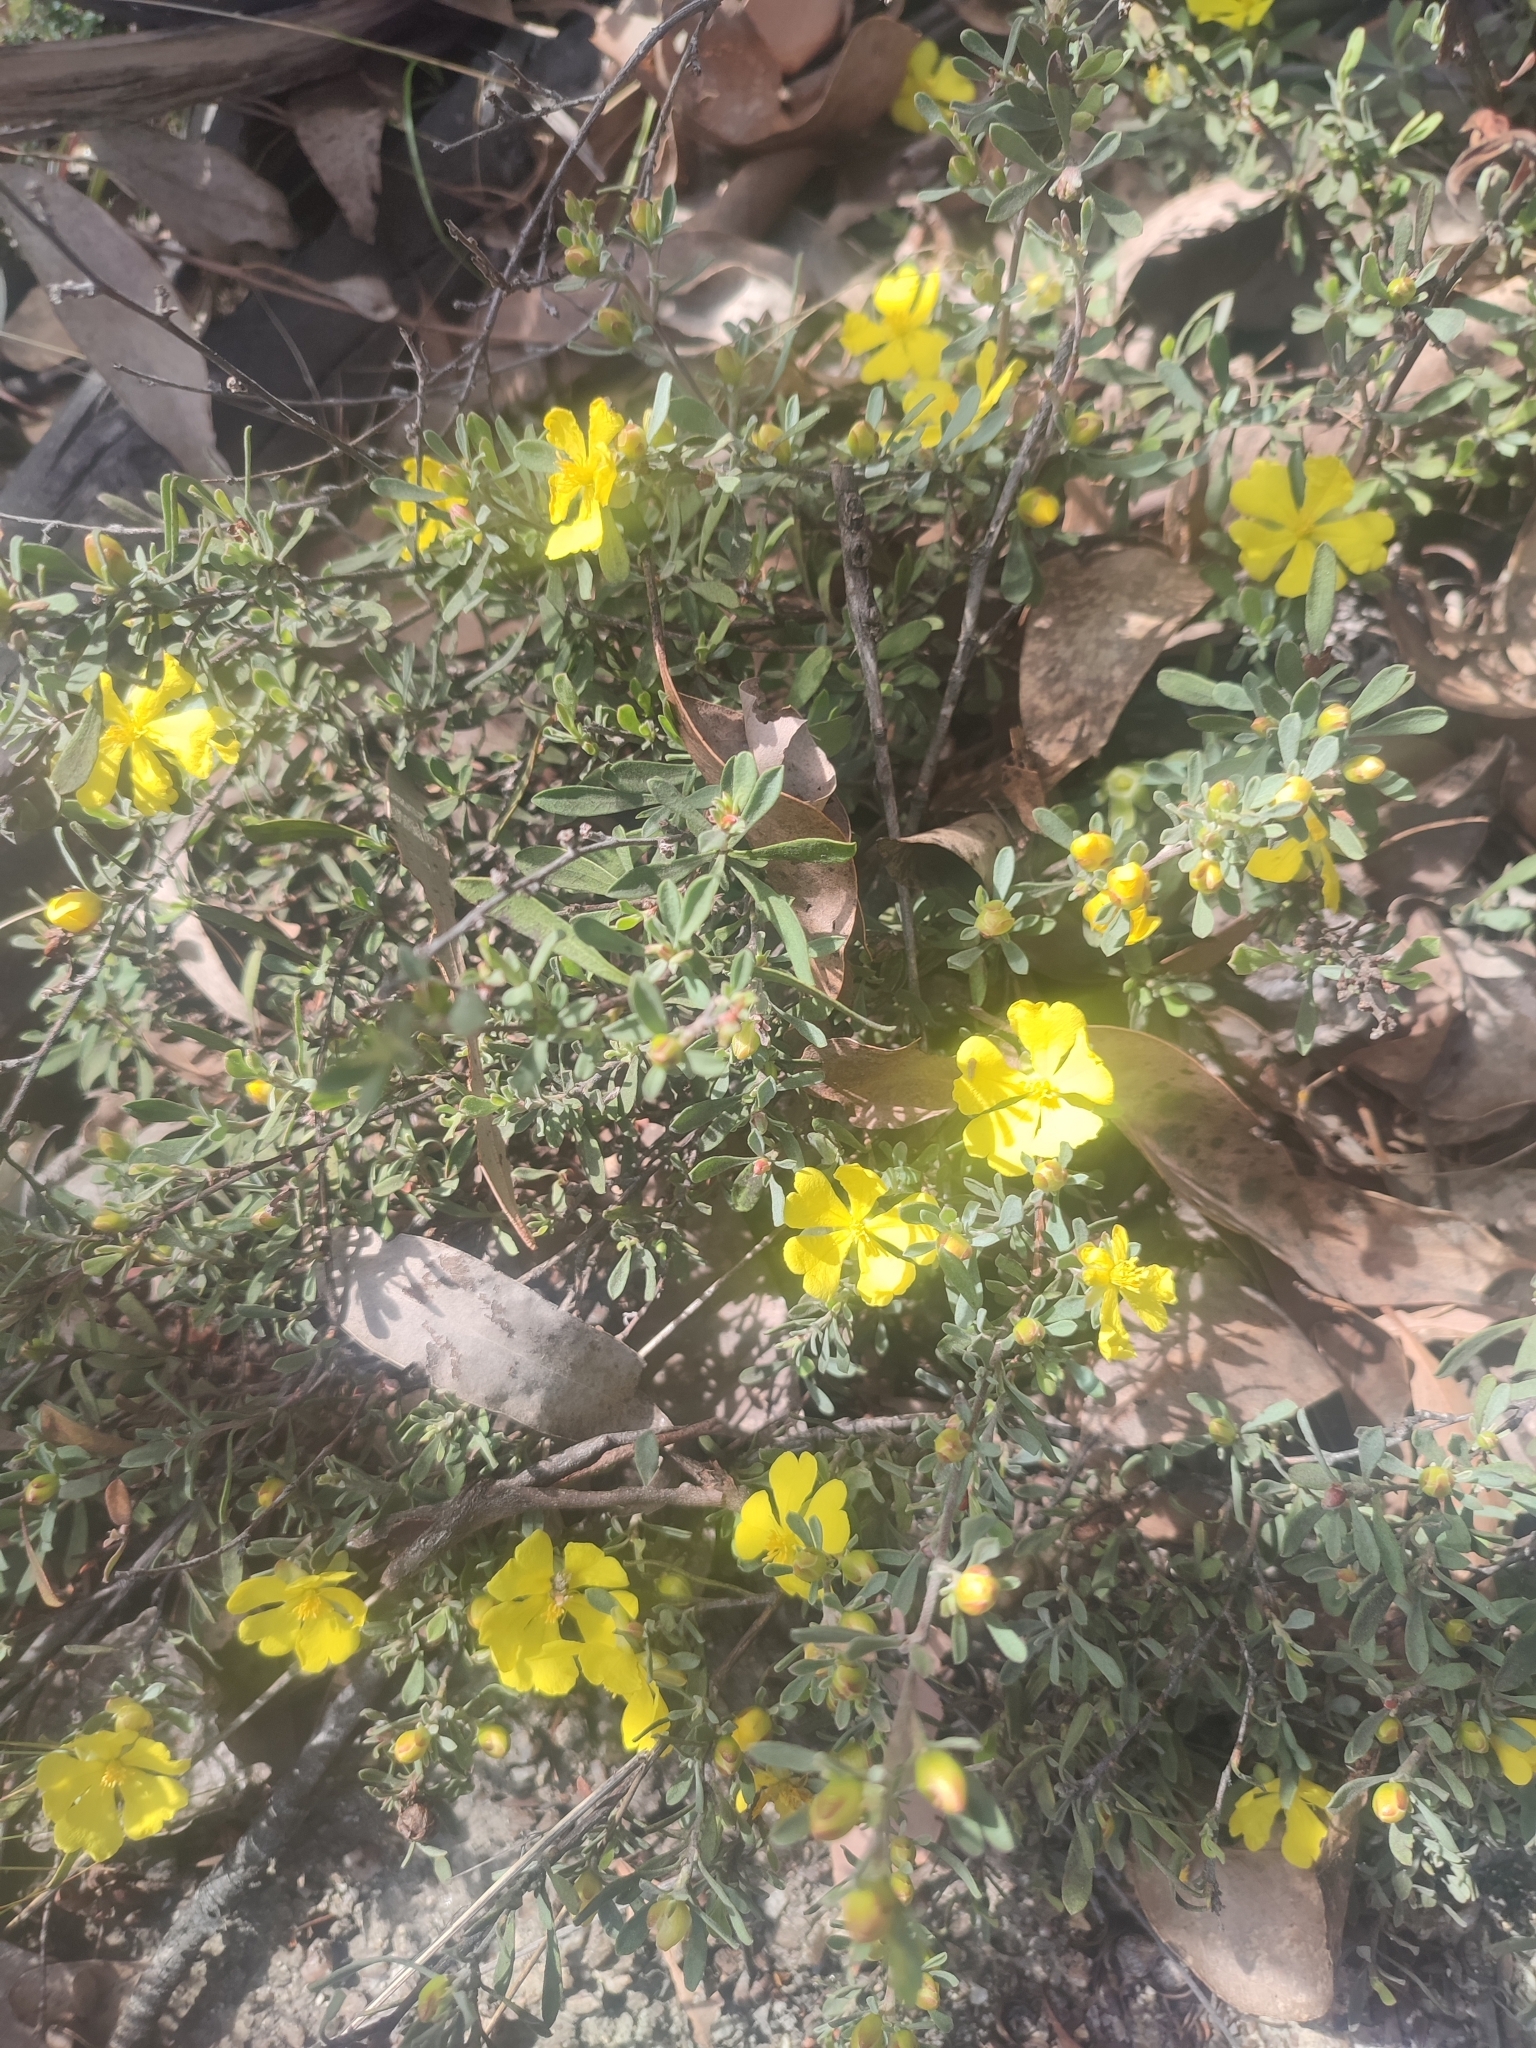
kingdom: Plantae
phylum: Tracheophyta
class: Magnoliopsida
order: Dilleniales
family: Dilleniaceae
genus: Hibbertia
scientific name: Hibbertia obtusifolia
